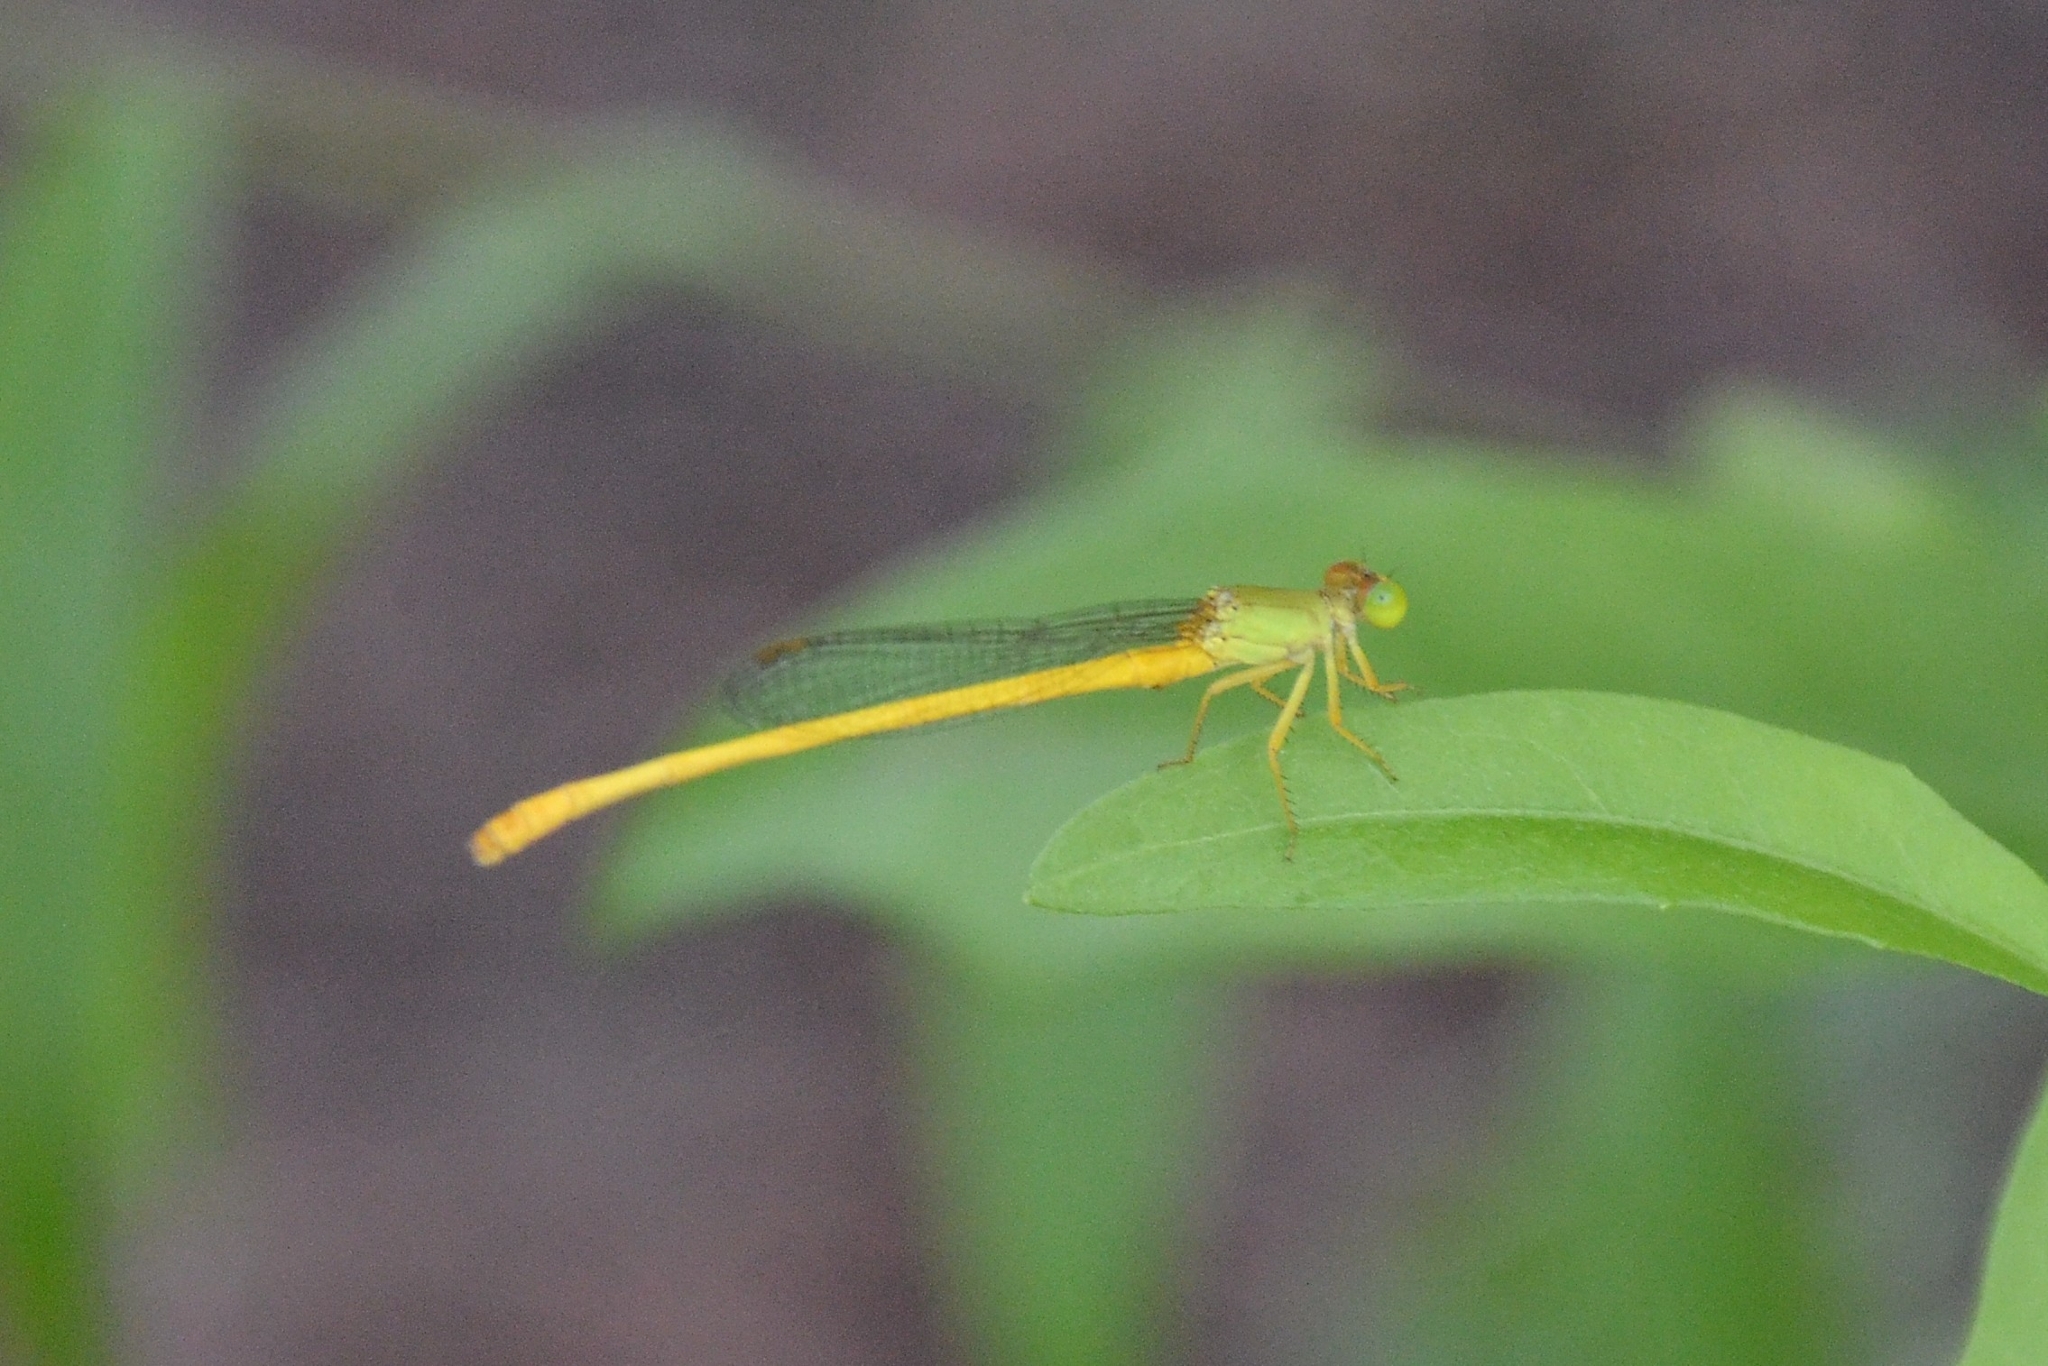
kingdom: Animalia
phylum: Arthropoda
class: Insecta
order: Odonata
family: Coenagrionidae
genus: Ceriagrion
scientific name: Ceriagrion coromandelianum
